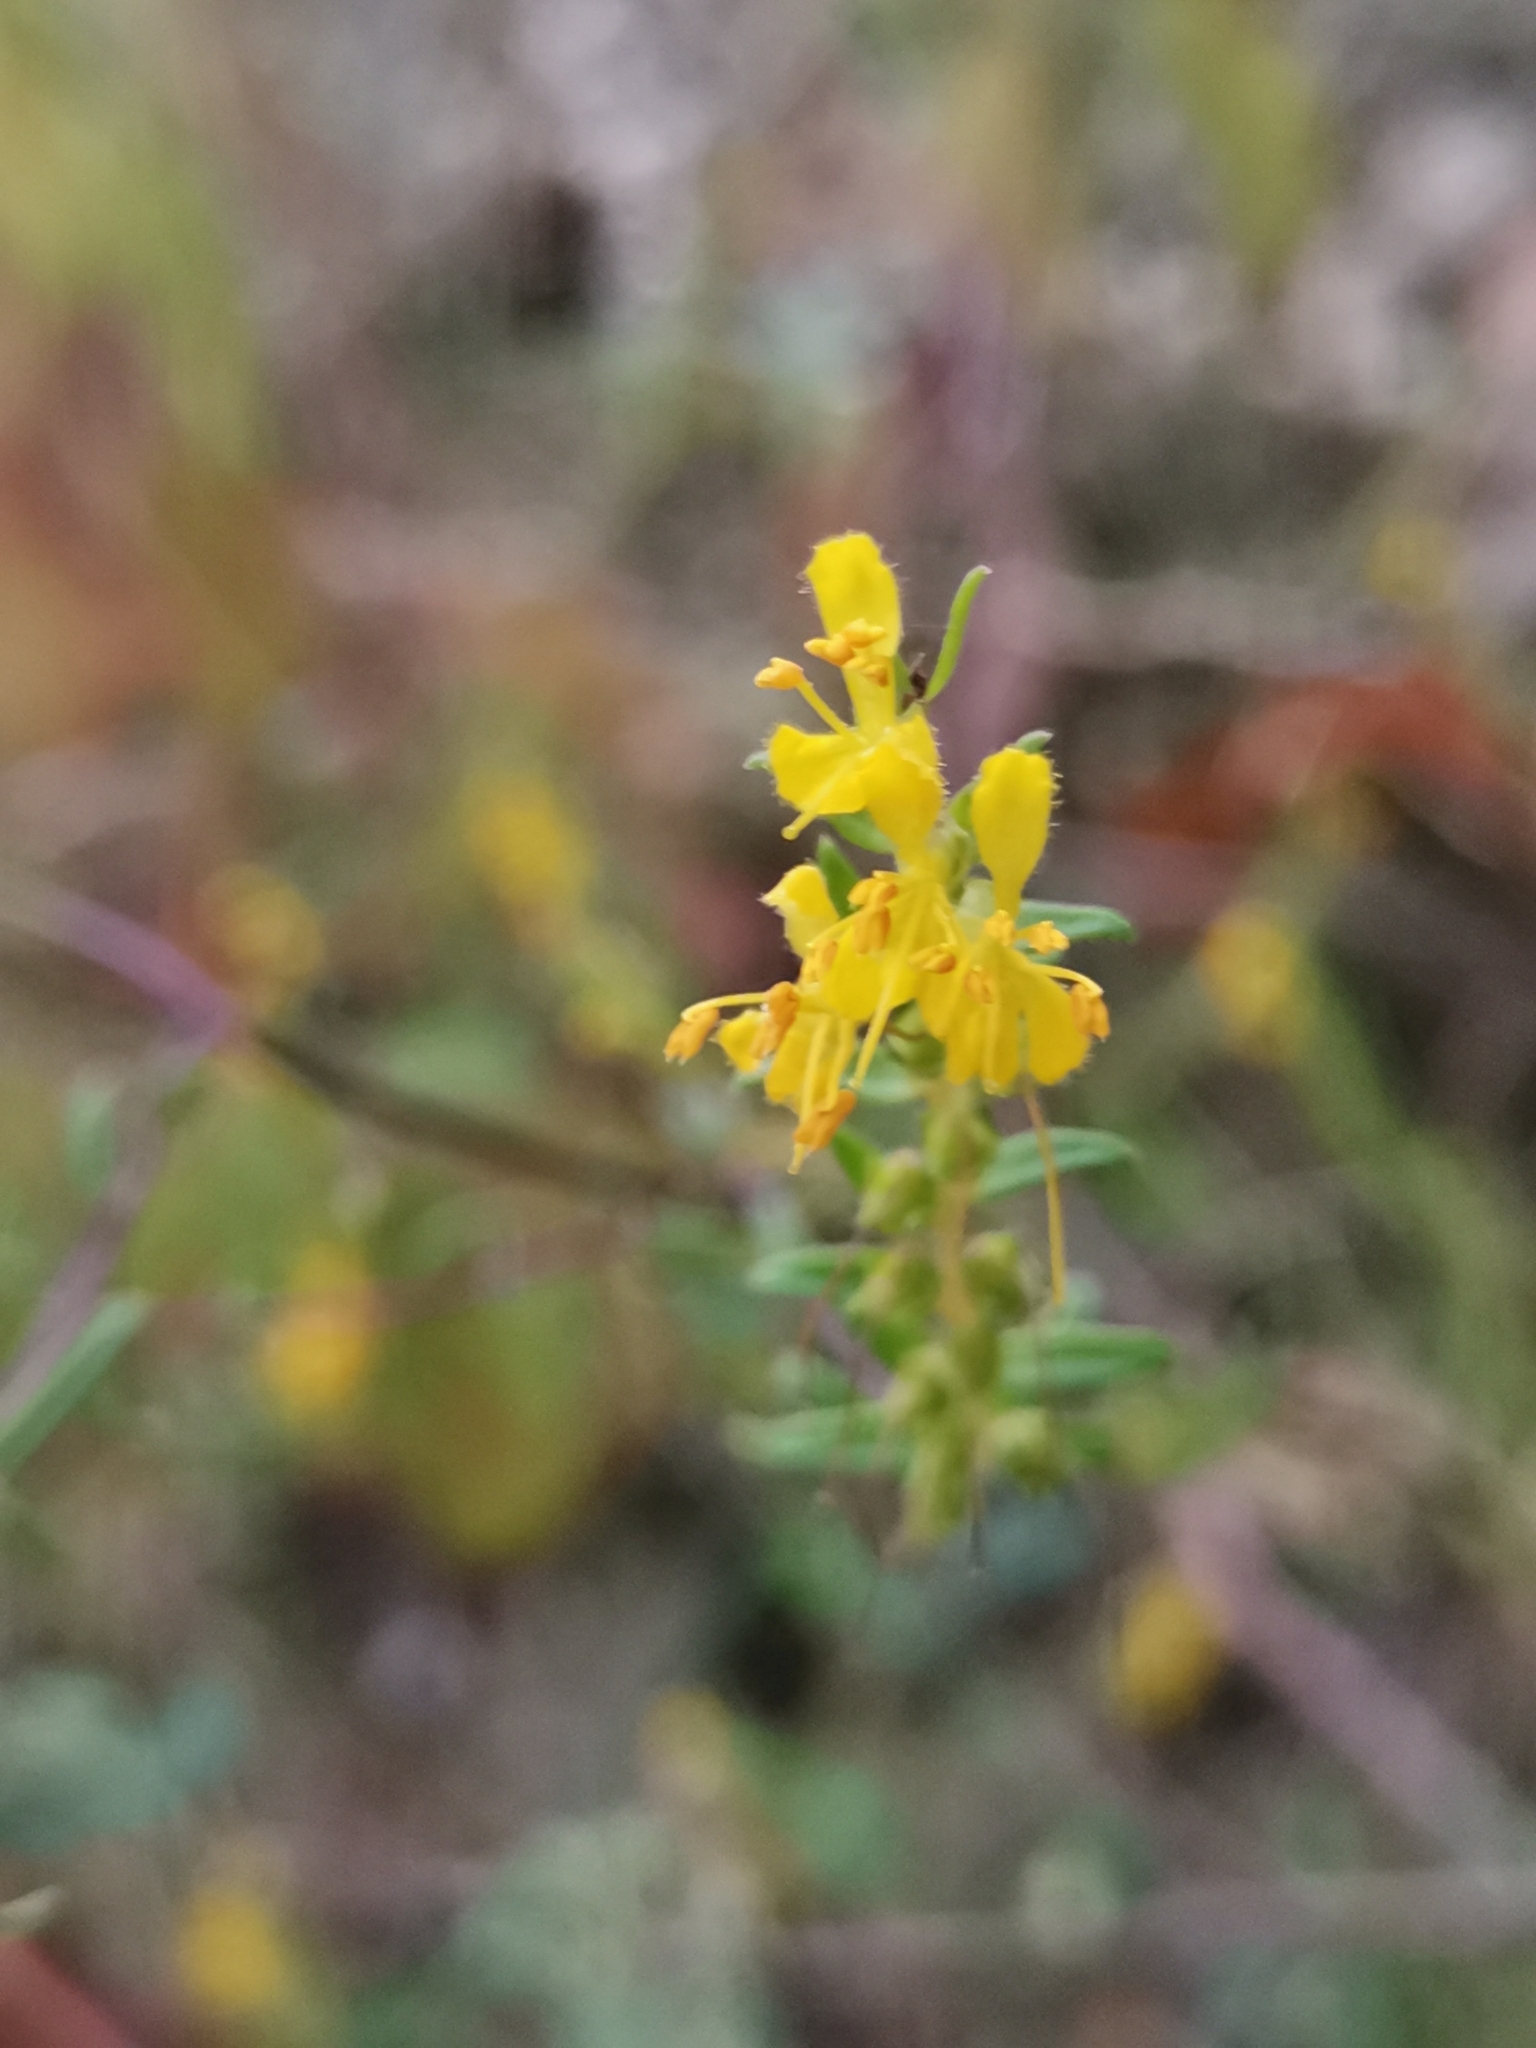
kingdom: Plantae
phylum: Tracheophyta
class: Magnoliopsida
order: Lamiales
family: Orobanchaceae
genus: Odontites
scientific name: Odontites luteus
